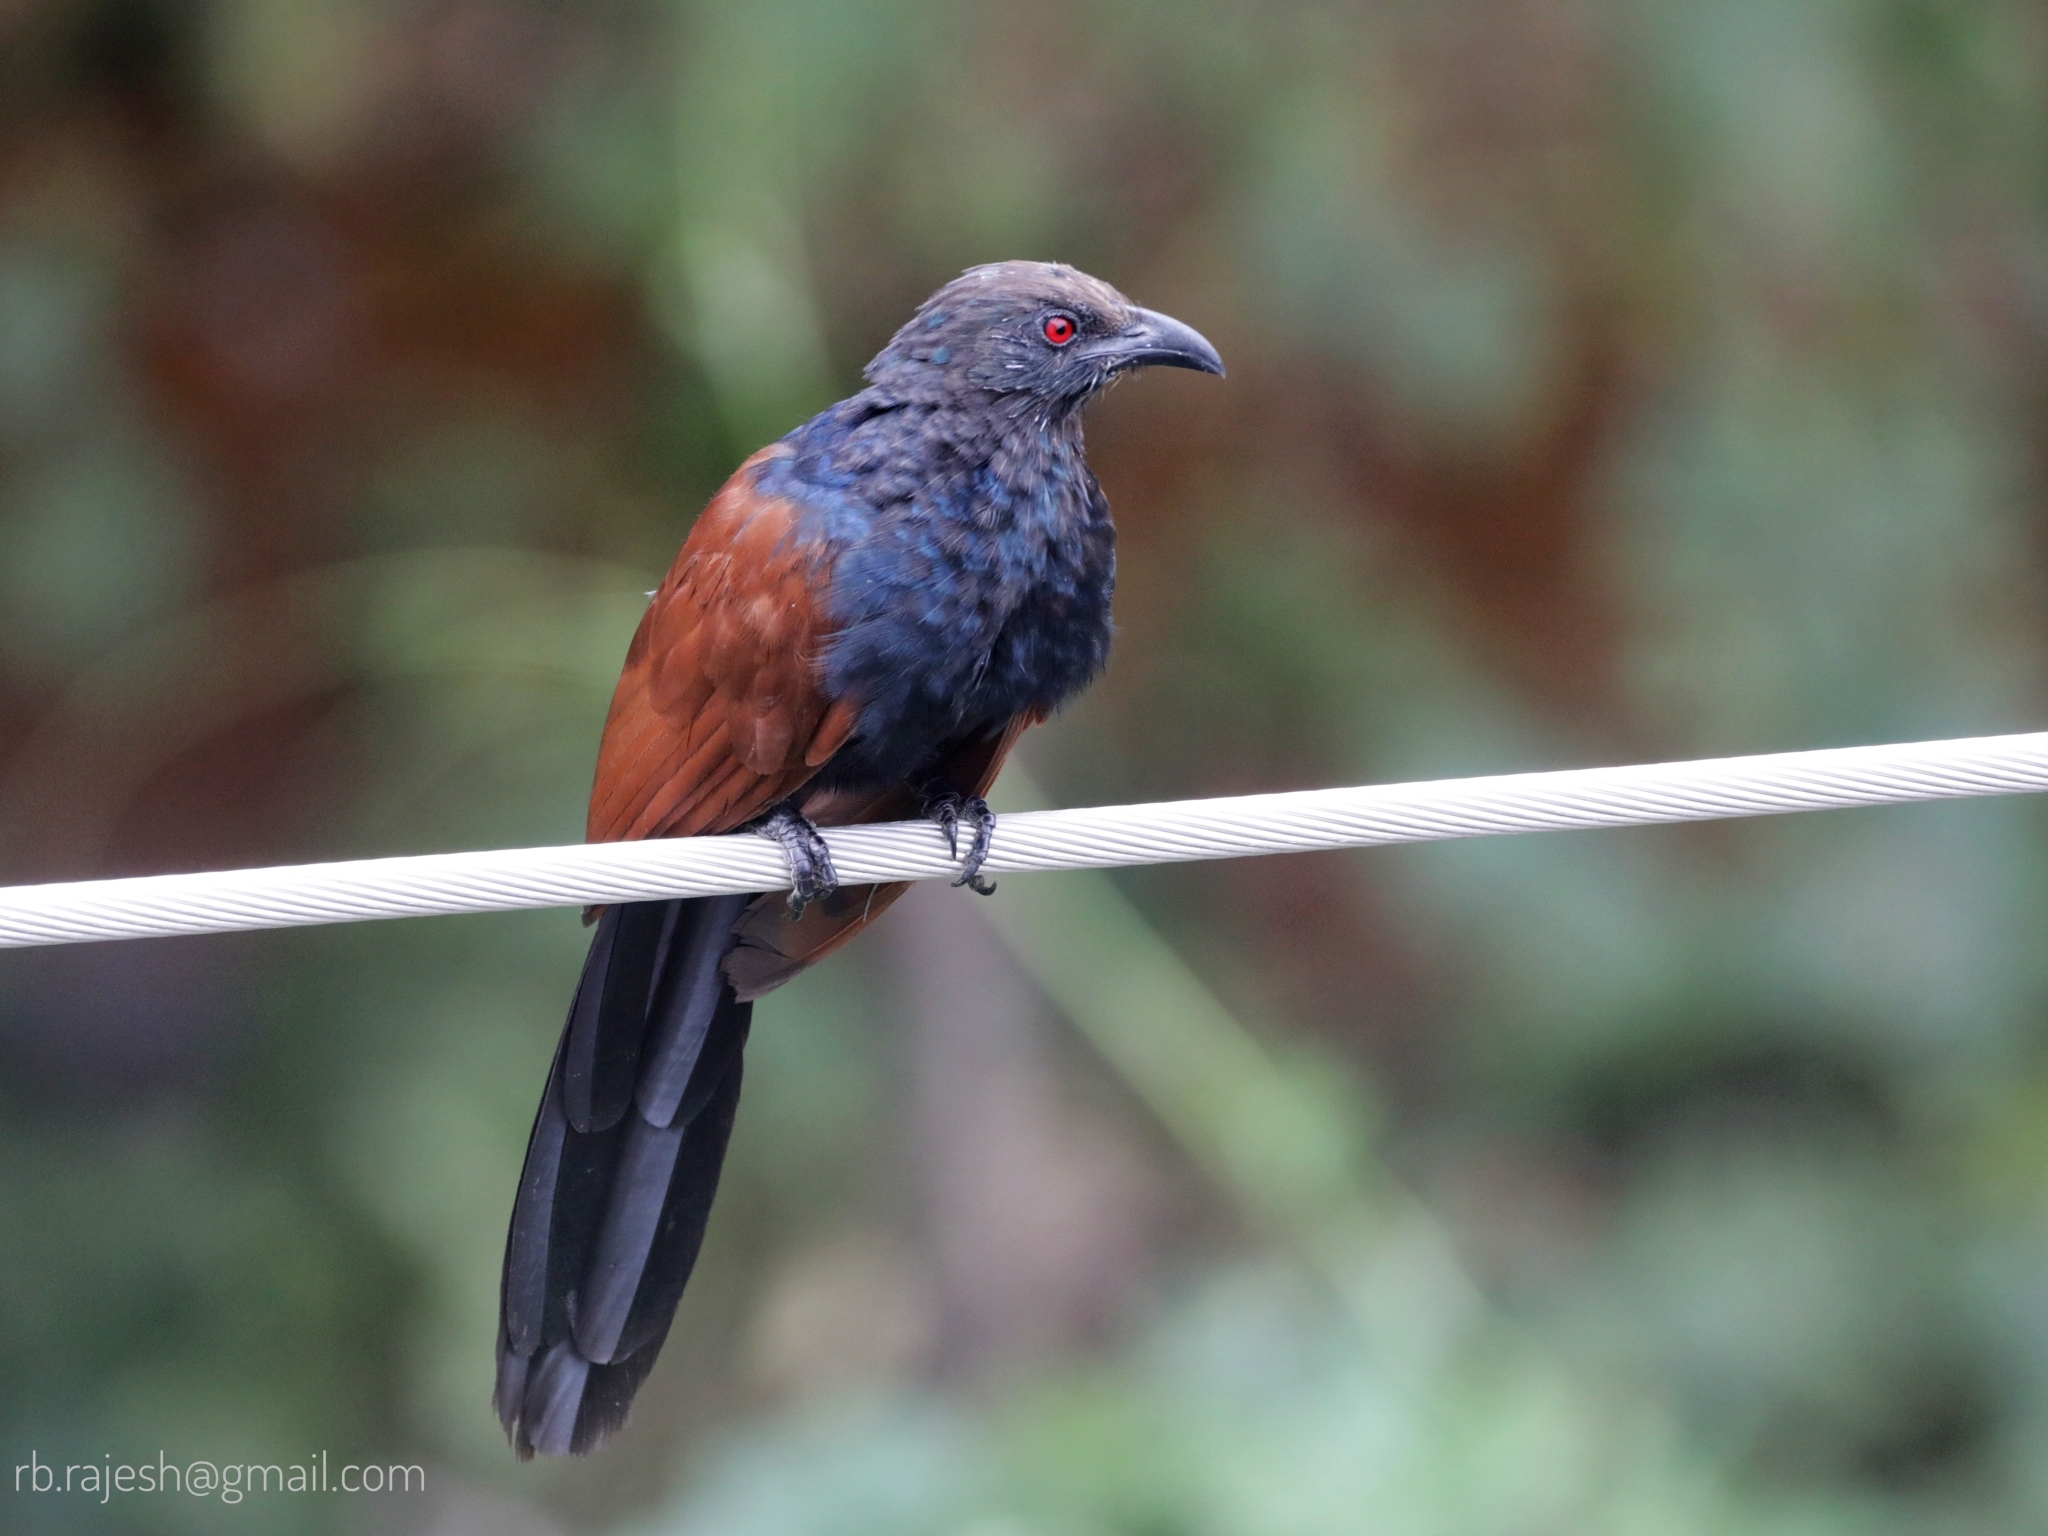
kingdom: Animalia
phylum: Chordata
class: Aves
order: Cuculiformes
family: Cuculidae
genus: Centropus
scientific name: Centropus sinensis
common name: Greater coucal
